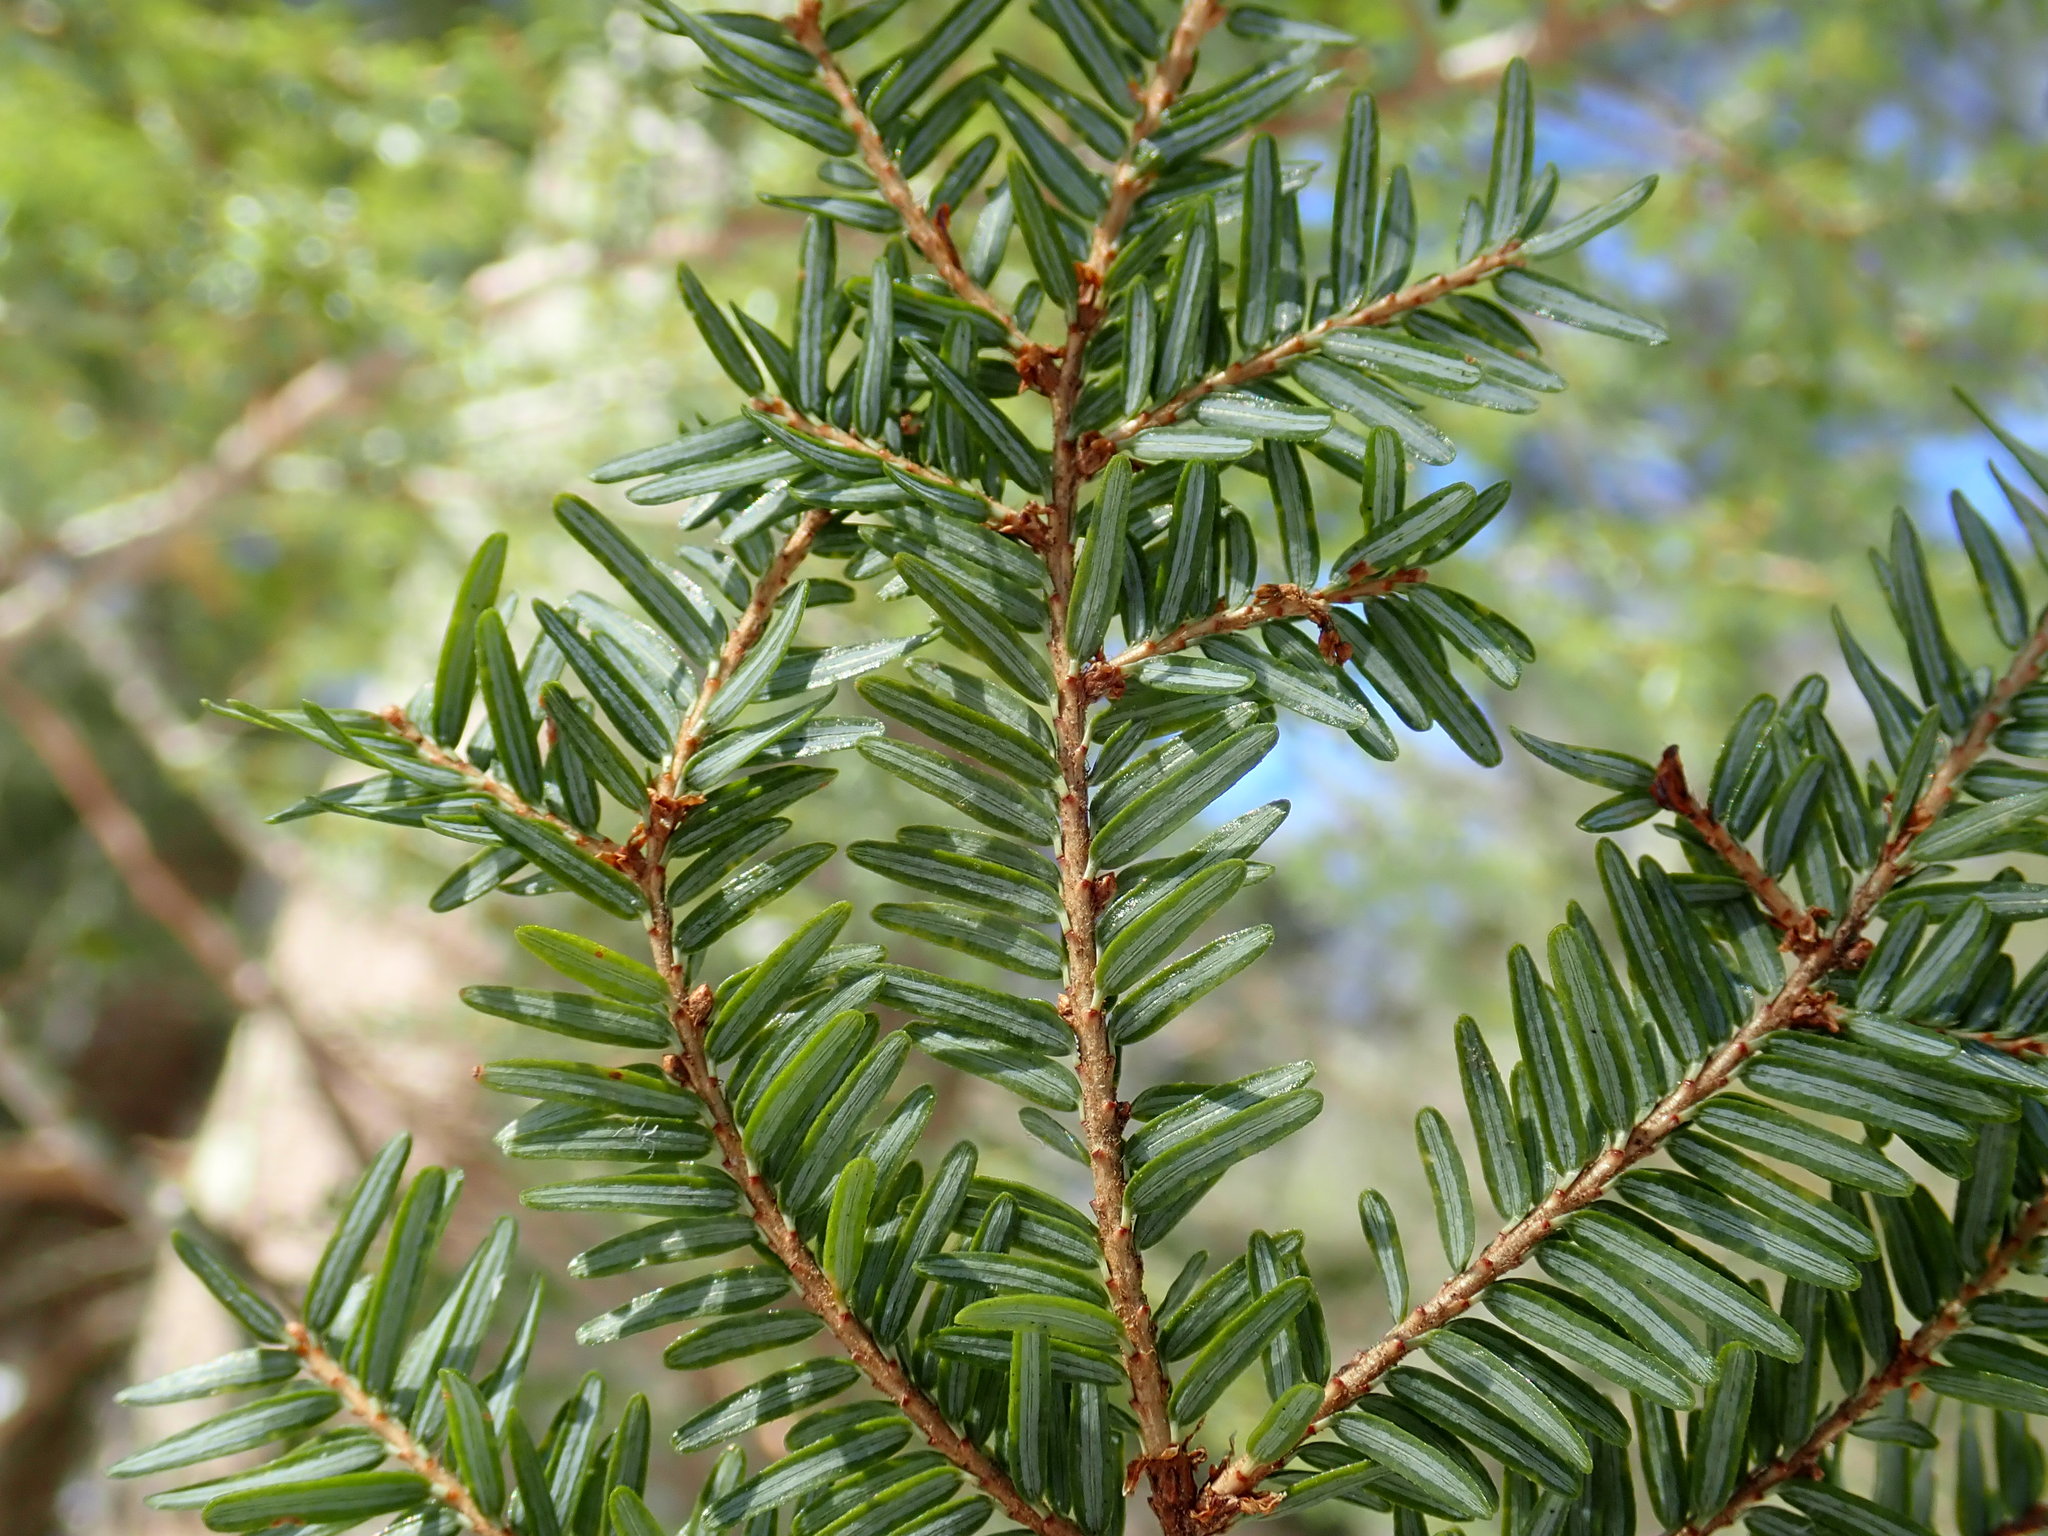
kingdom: Plantae
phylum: Tracheophyta
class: Pinopsida
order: Pinales
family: Pinaceae
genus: Tsuga
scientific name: Tsuga canadensis
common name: Eastern hemlock
